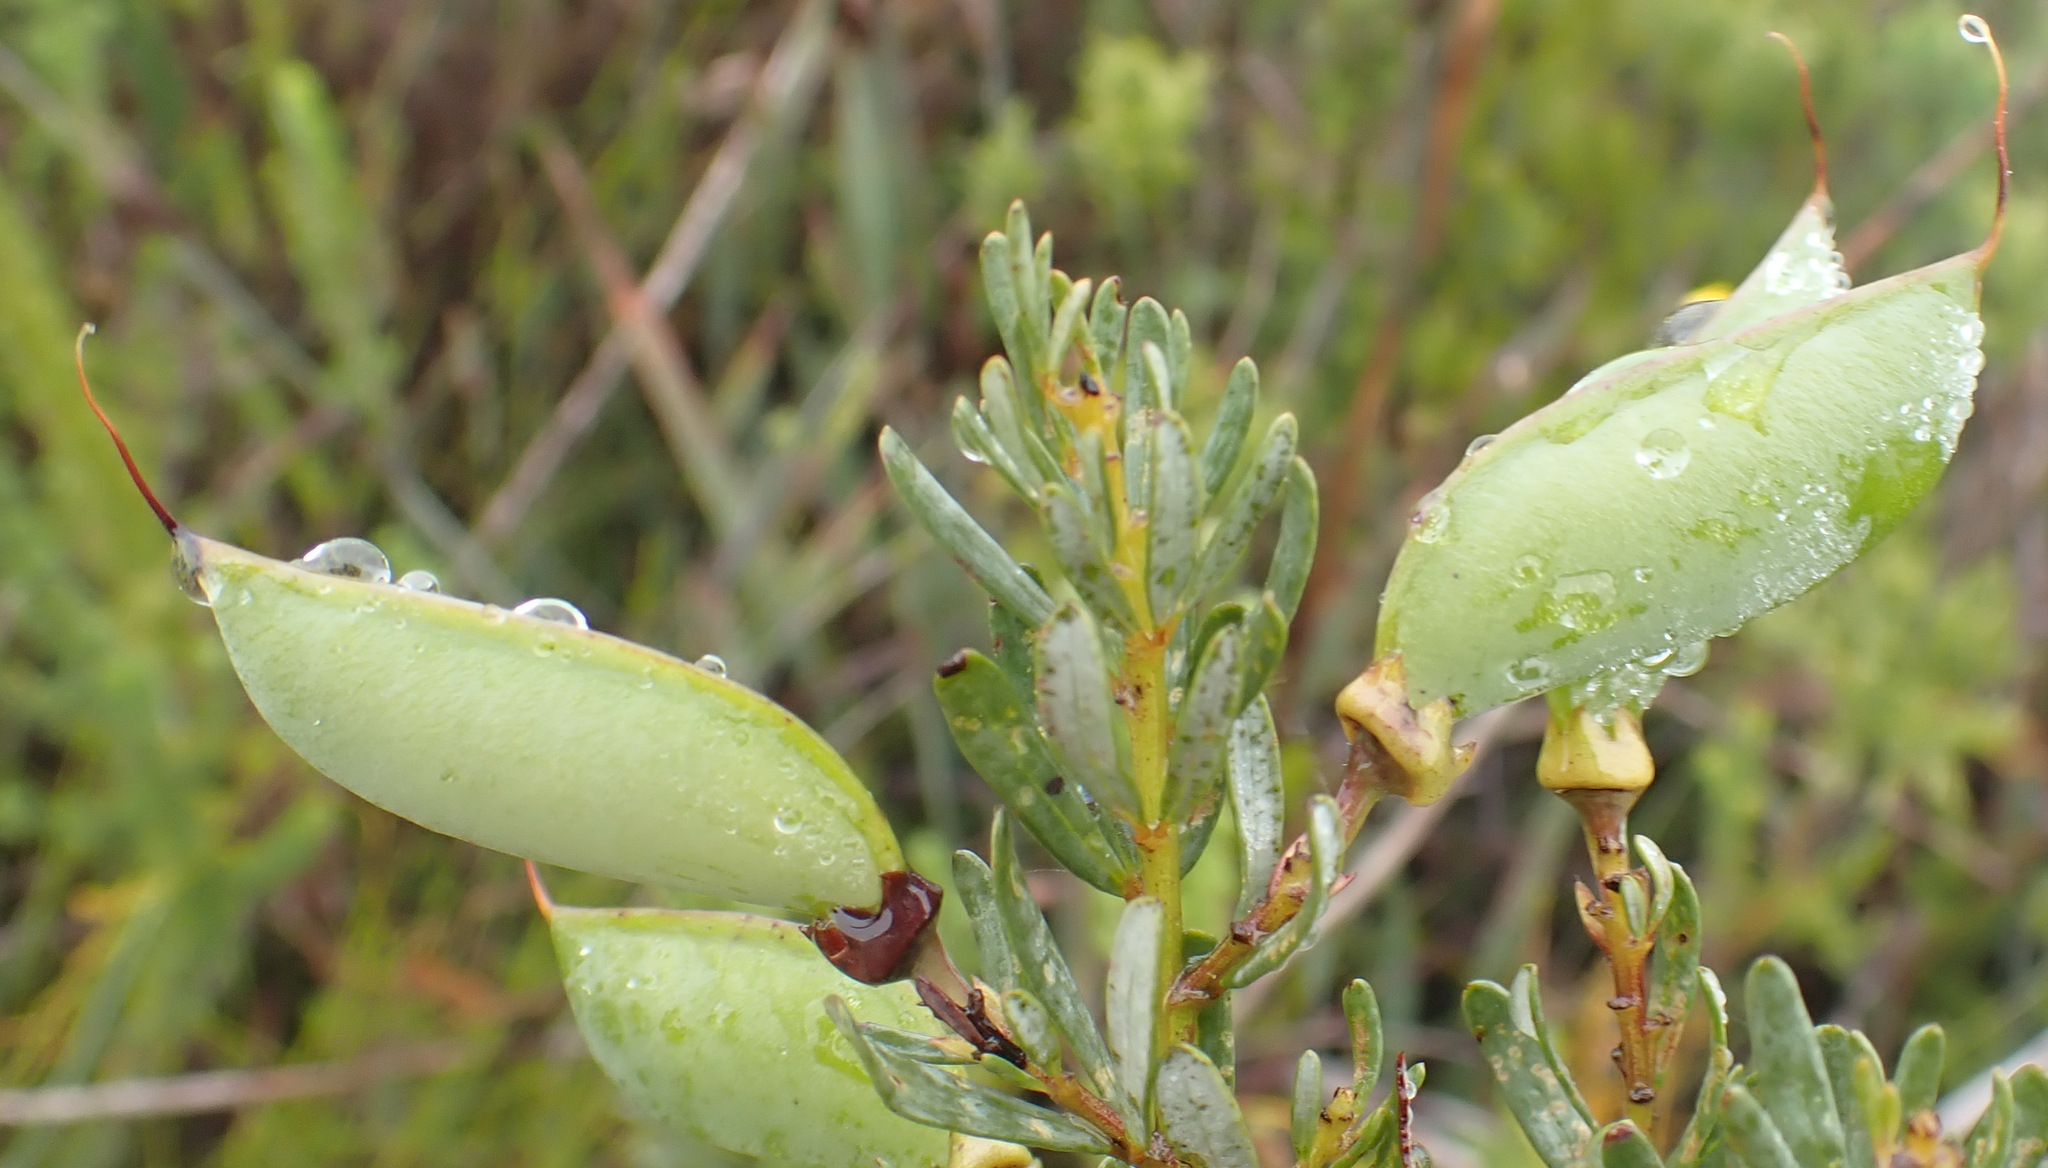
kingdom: Plantae
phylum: Tracheophyta
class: Magnoliopsida
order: Fabales
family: Fabaceae
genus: Cyclopia
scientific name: Cyclopia subternata
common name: Honeybush tea
